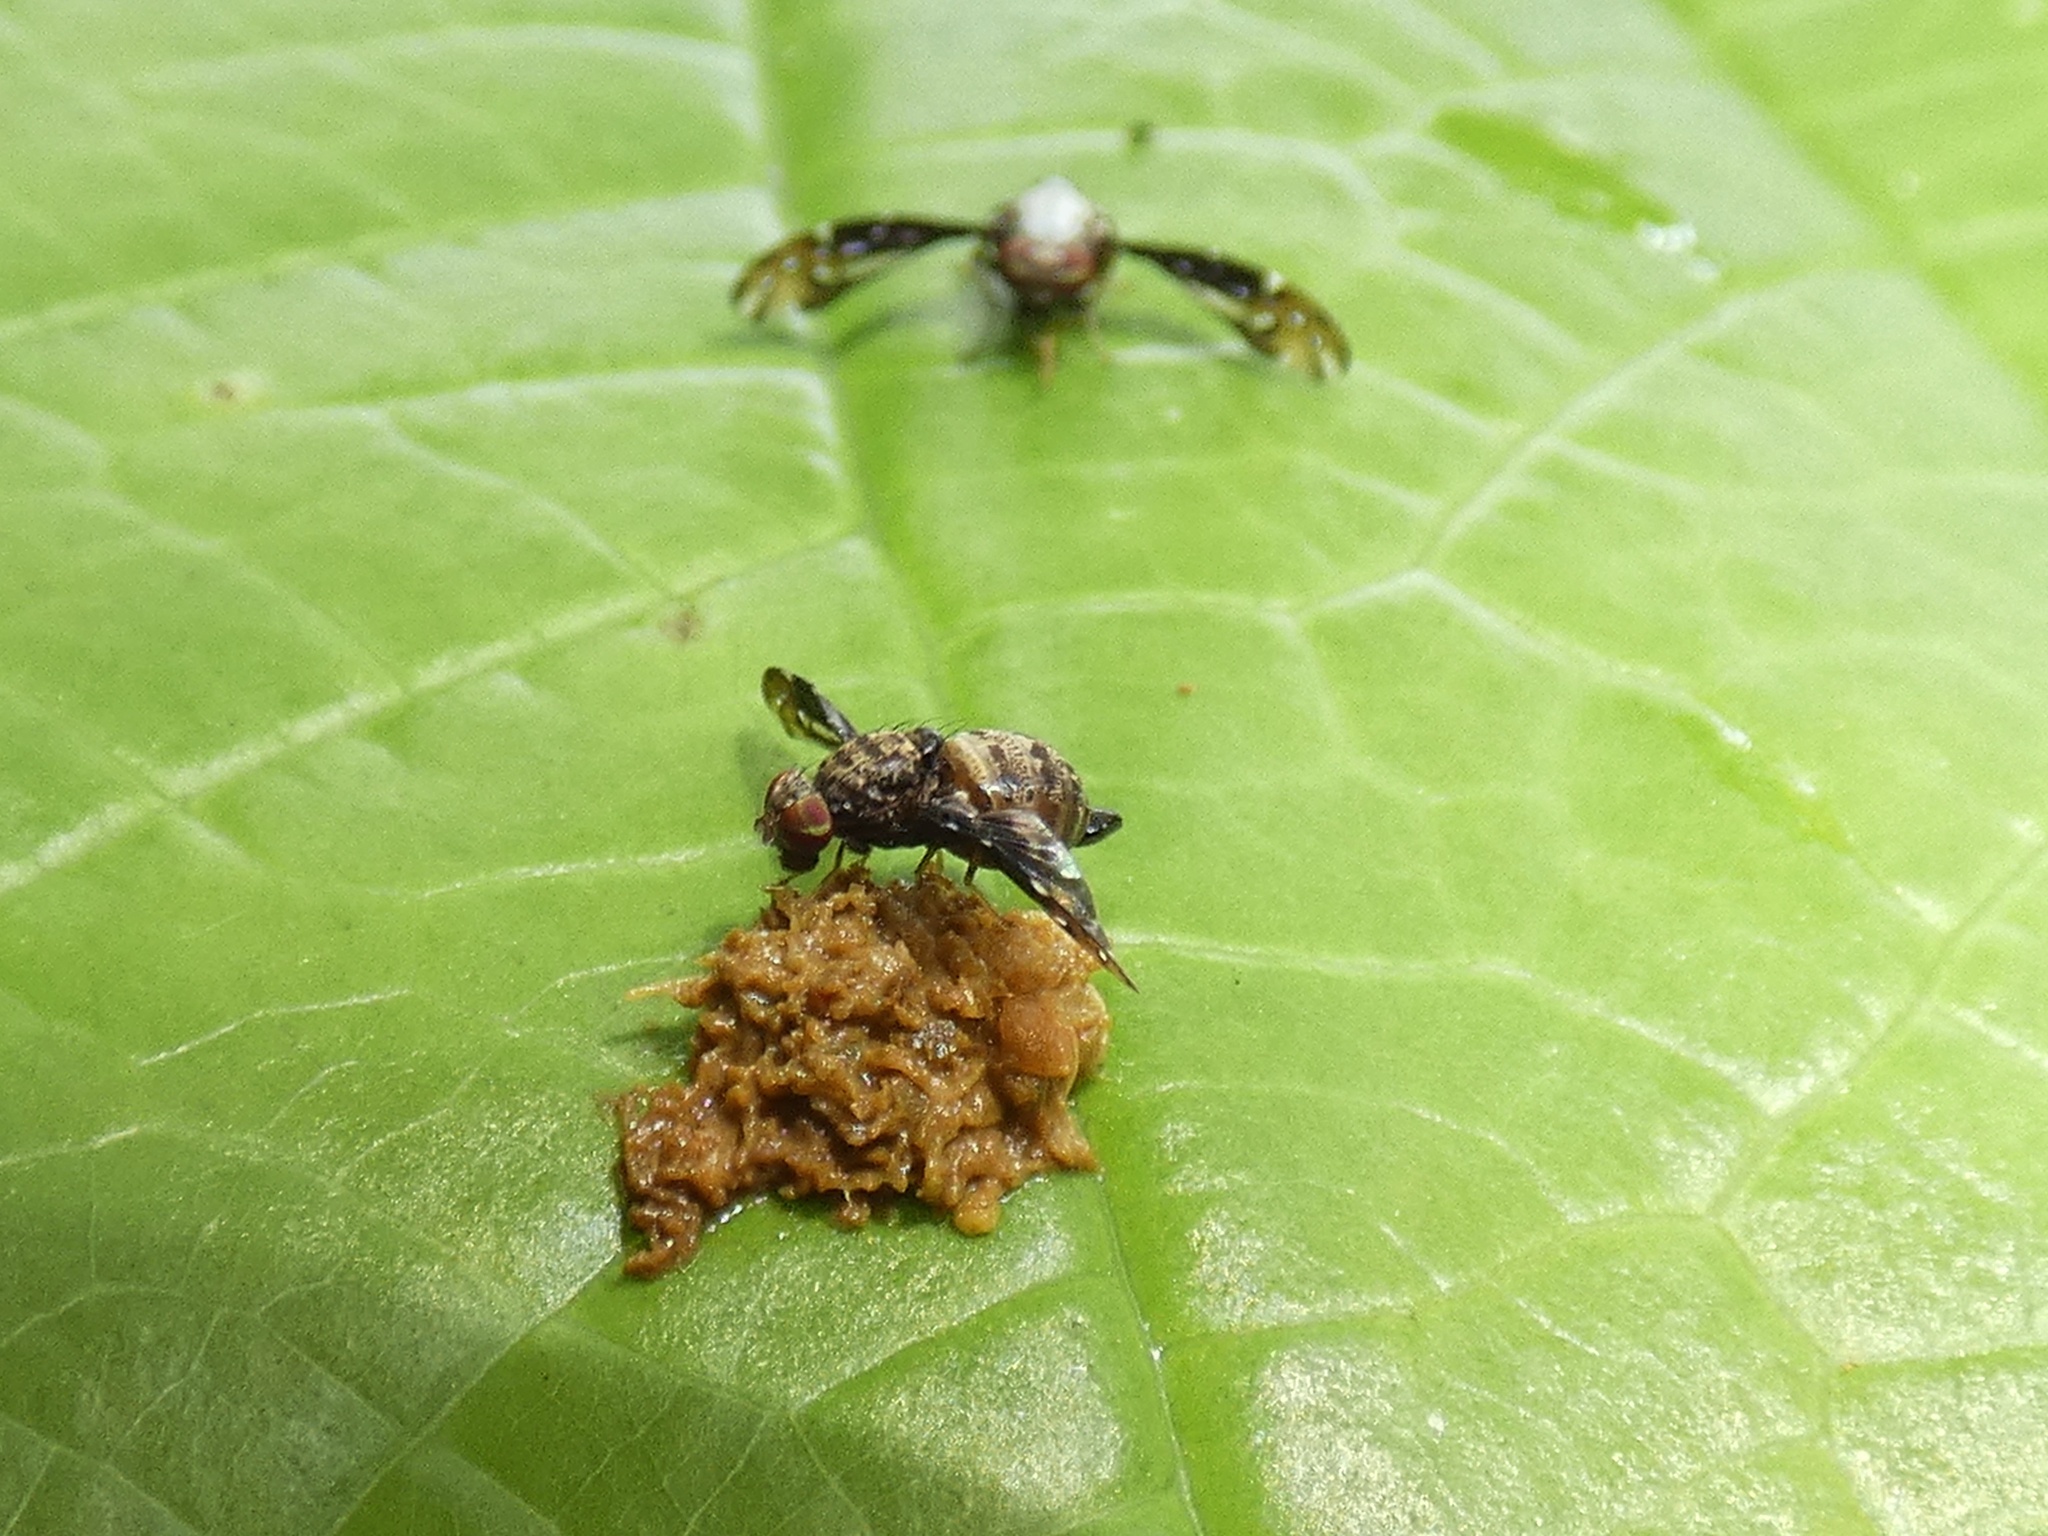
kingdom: Animalia
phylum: Arthropoda
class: Insecta
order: Diptera
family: Ulidiidae
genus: Pseudopterocalla
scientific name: Pseudopterocalla fenestrata
